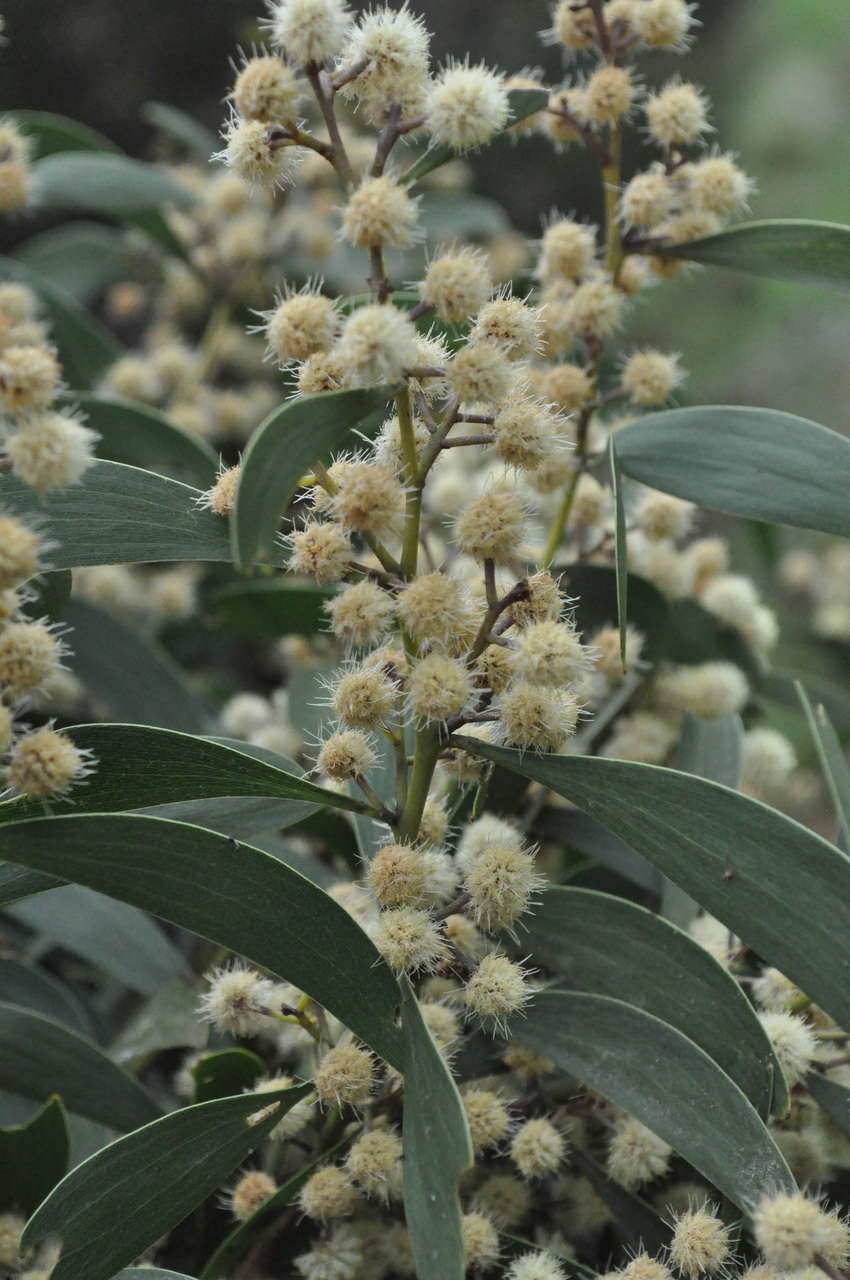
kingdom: Plantae
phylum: Tracheophyta
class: Magnoliopsida
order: Fabales
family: Fabaceae
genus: Acacia
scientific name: Acacia melanoxylon
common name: Blackwood
